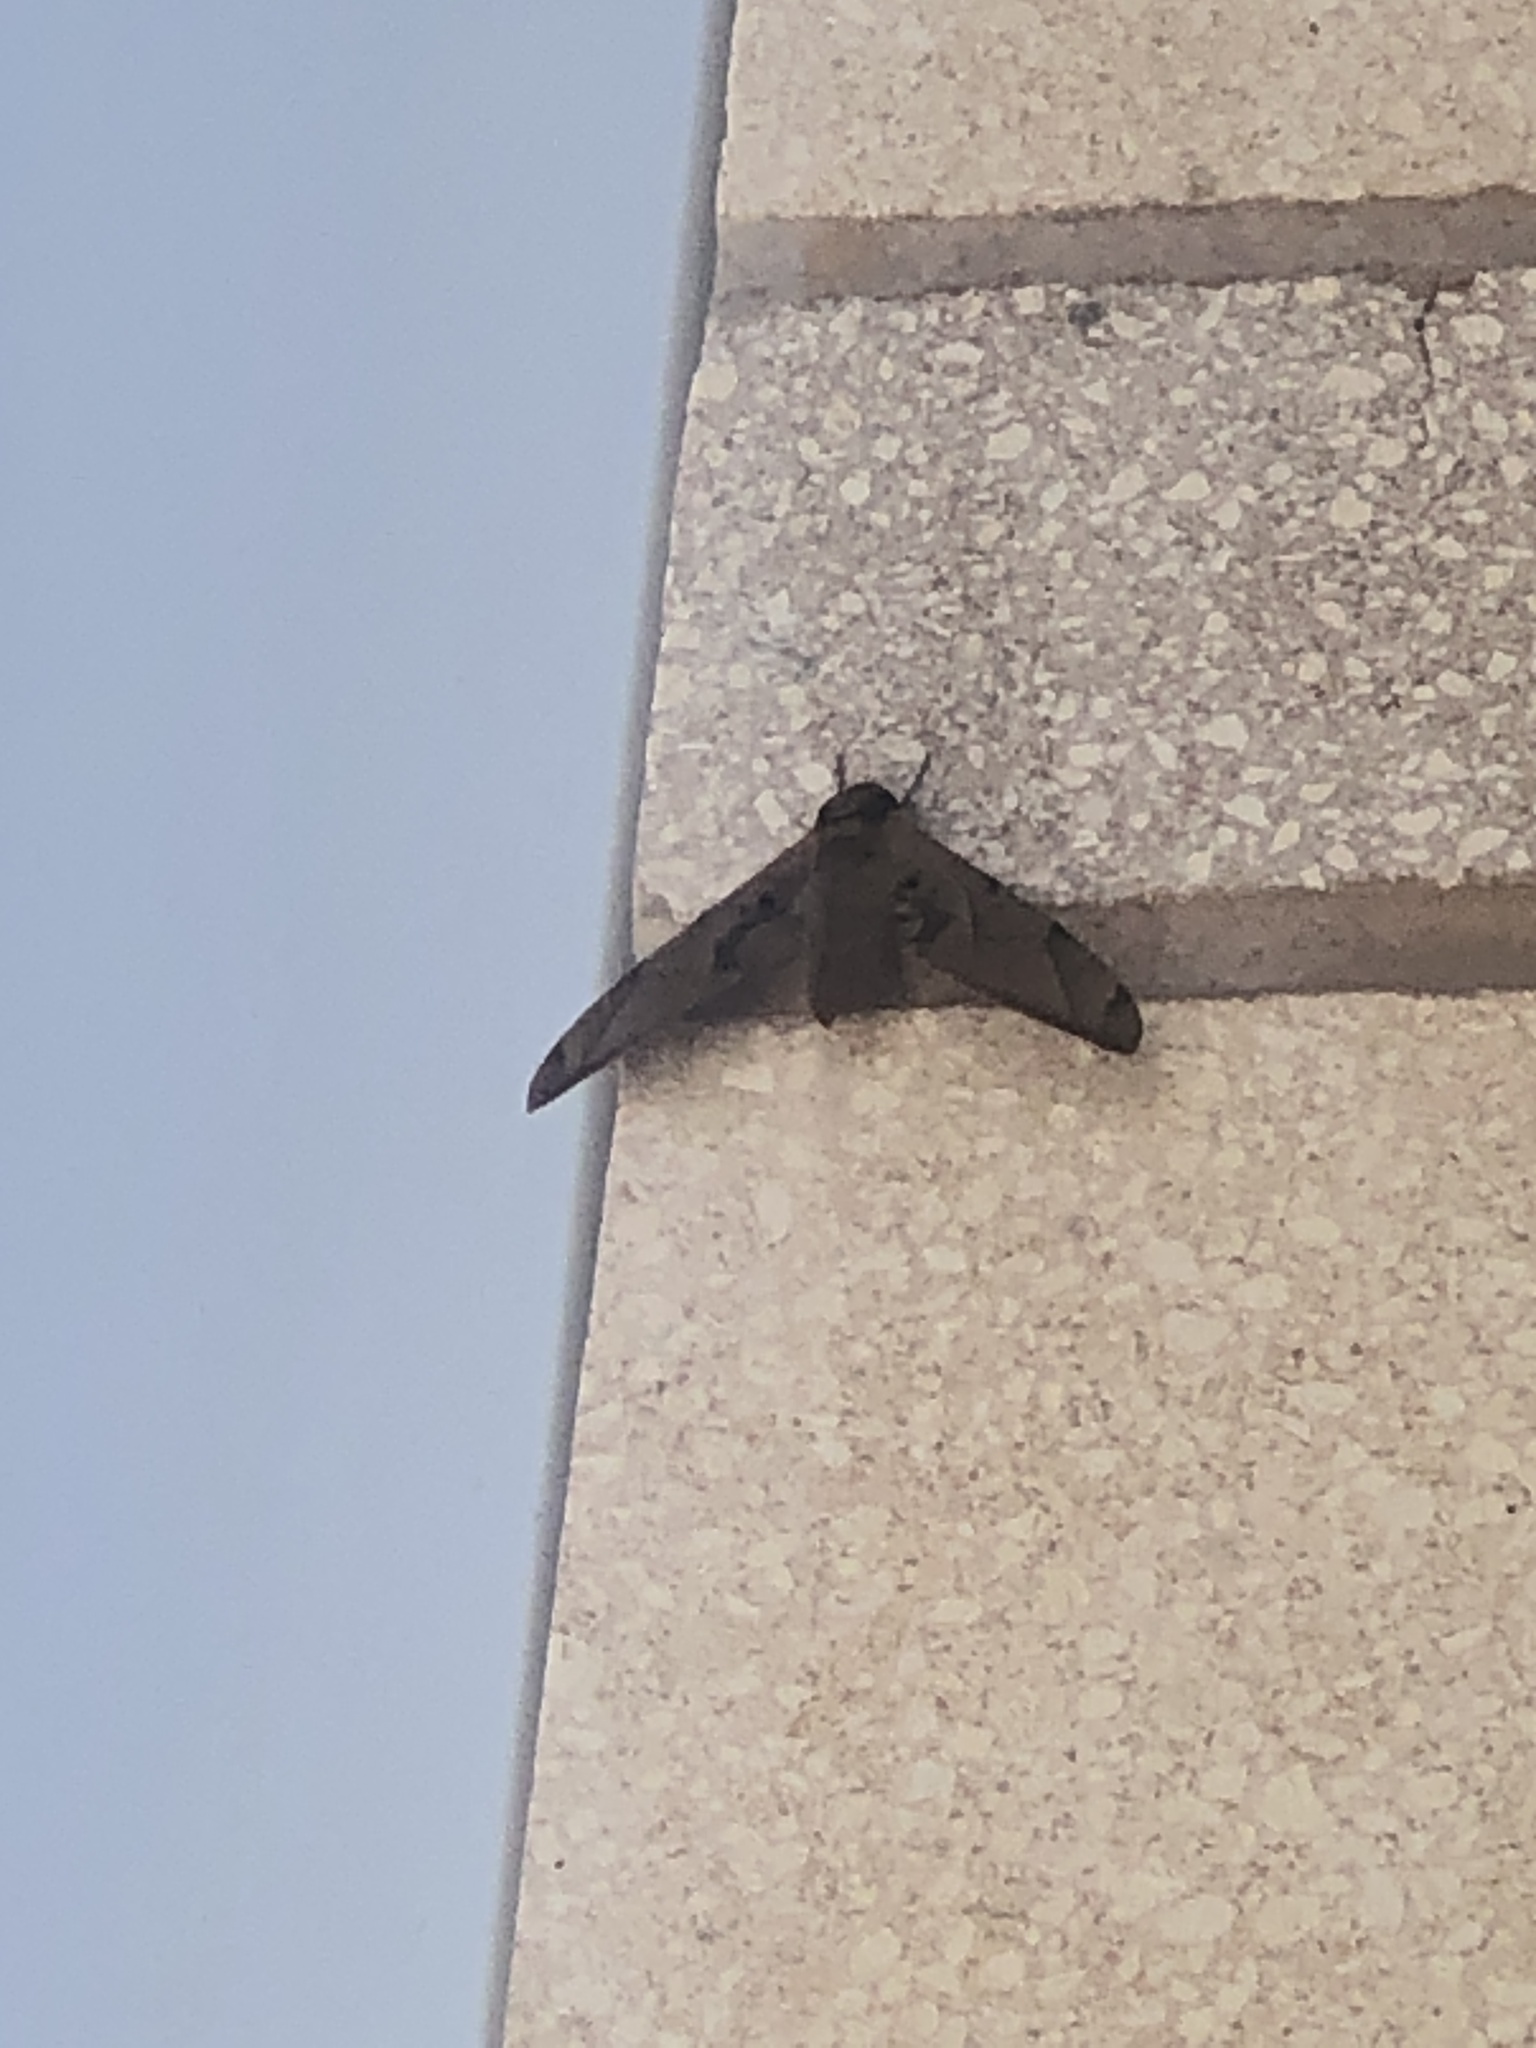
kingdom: Animalia
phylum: Arthropoda
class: Insecta
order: Lepidoptera
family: Sphingidae
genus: Protambulyx
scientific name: Protambulyx strigilis
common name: Streaked sphinx
